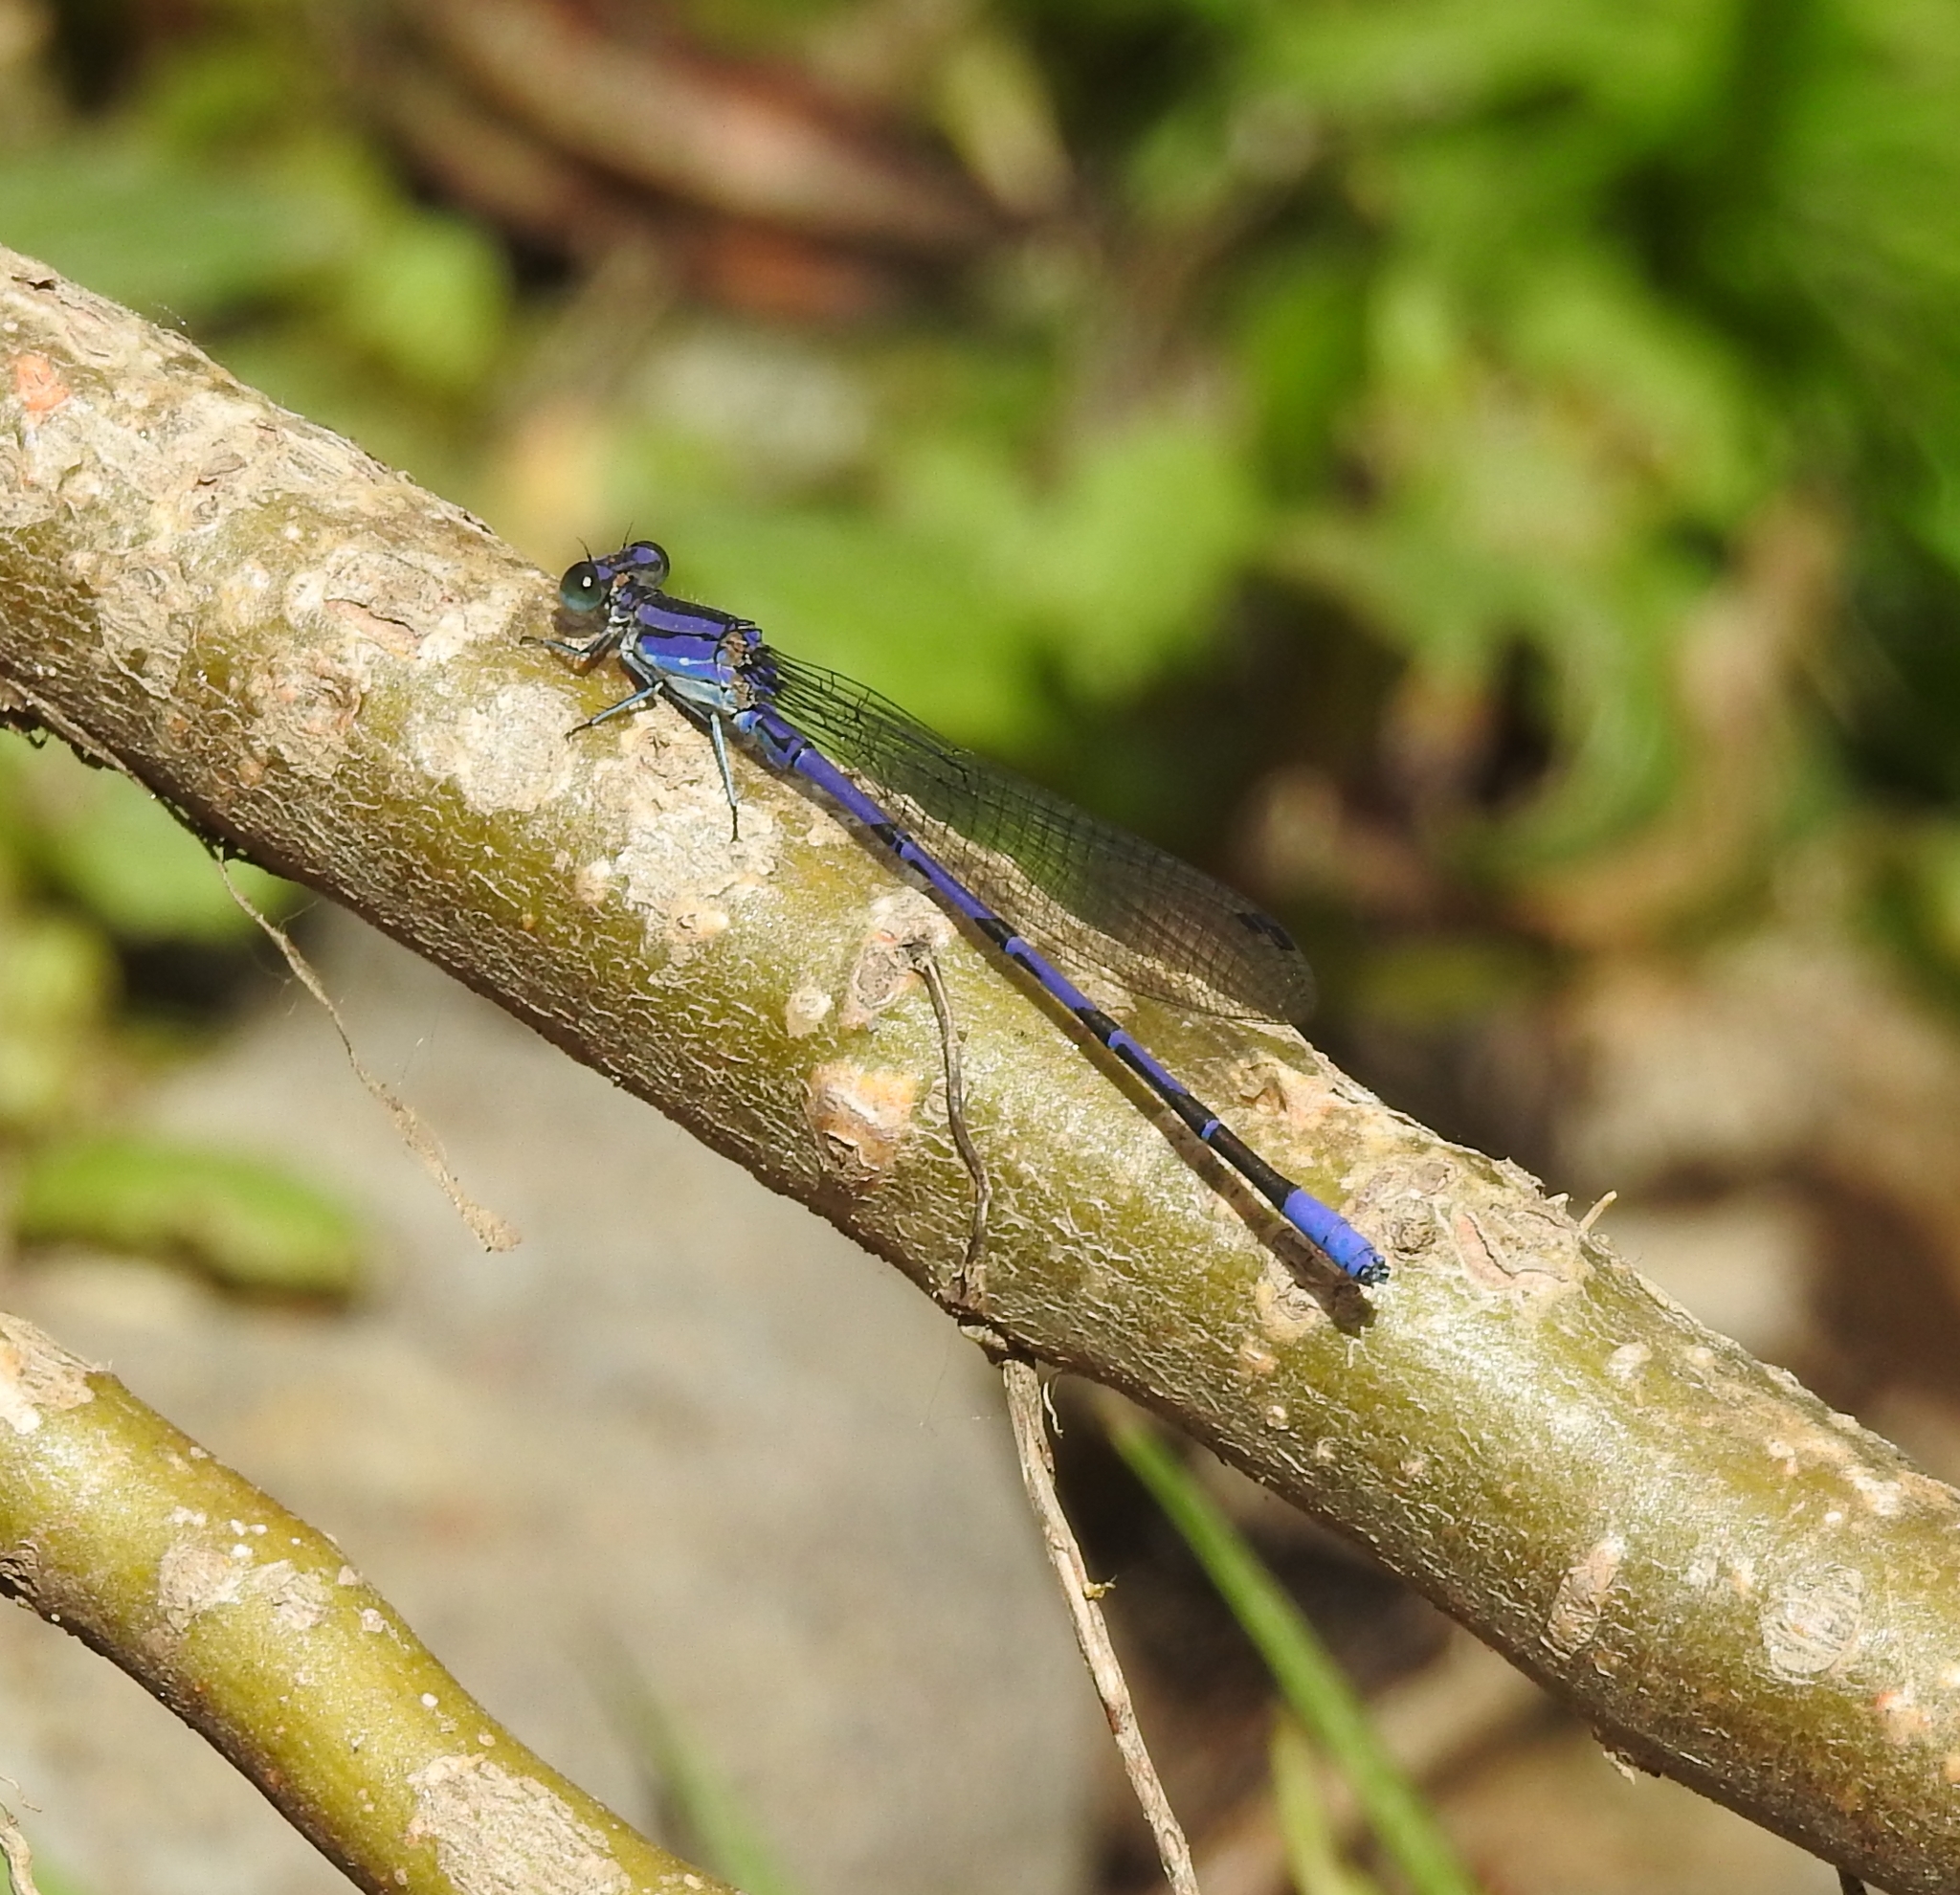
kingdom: Animalia
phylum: Arthropoda
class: Insecta
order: Odonata
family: Coenagrionidae
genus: Argia
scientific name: Argia funebris
